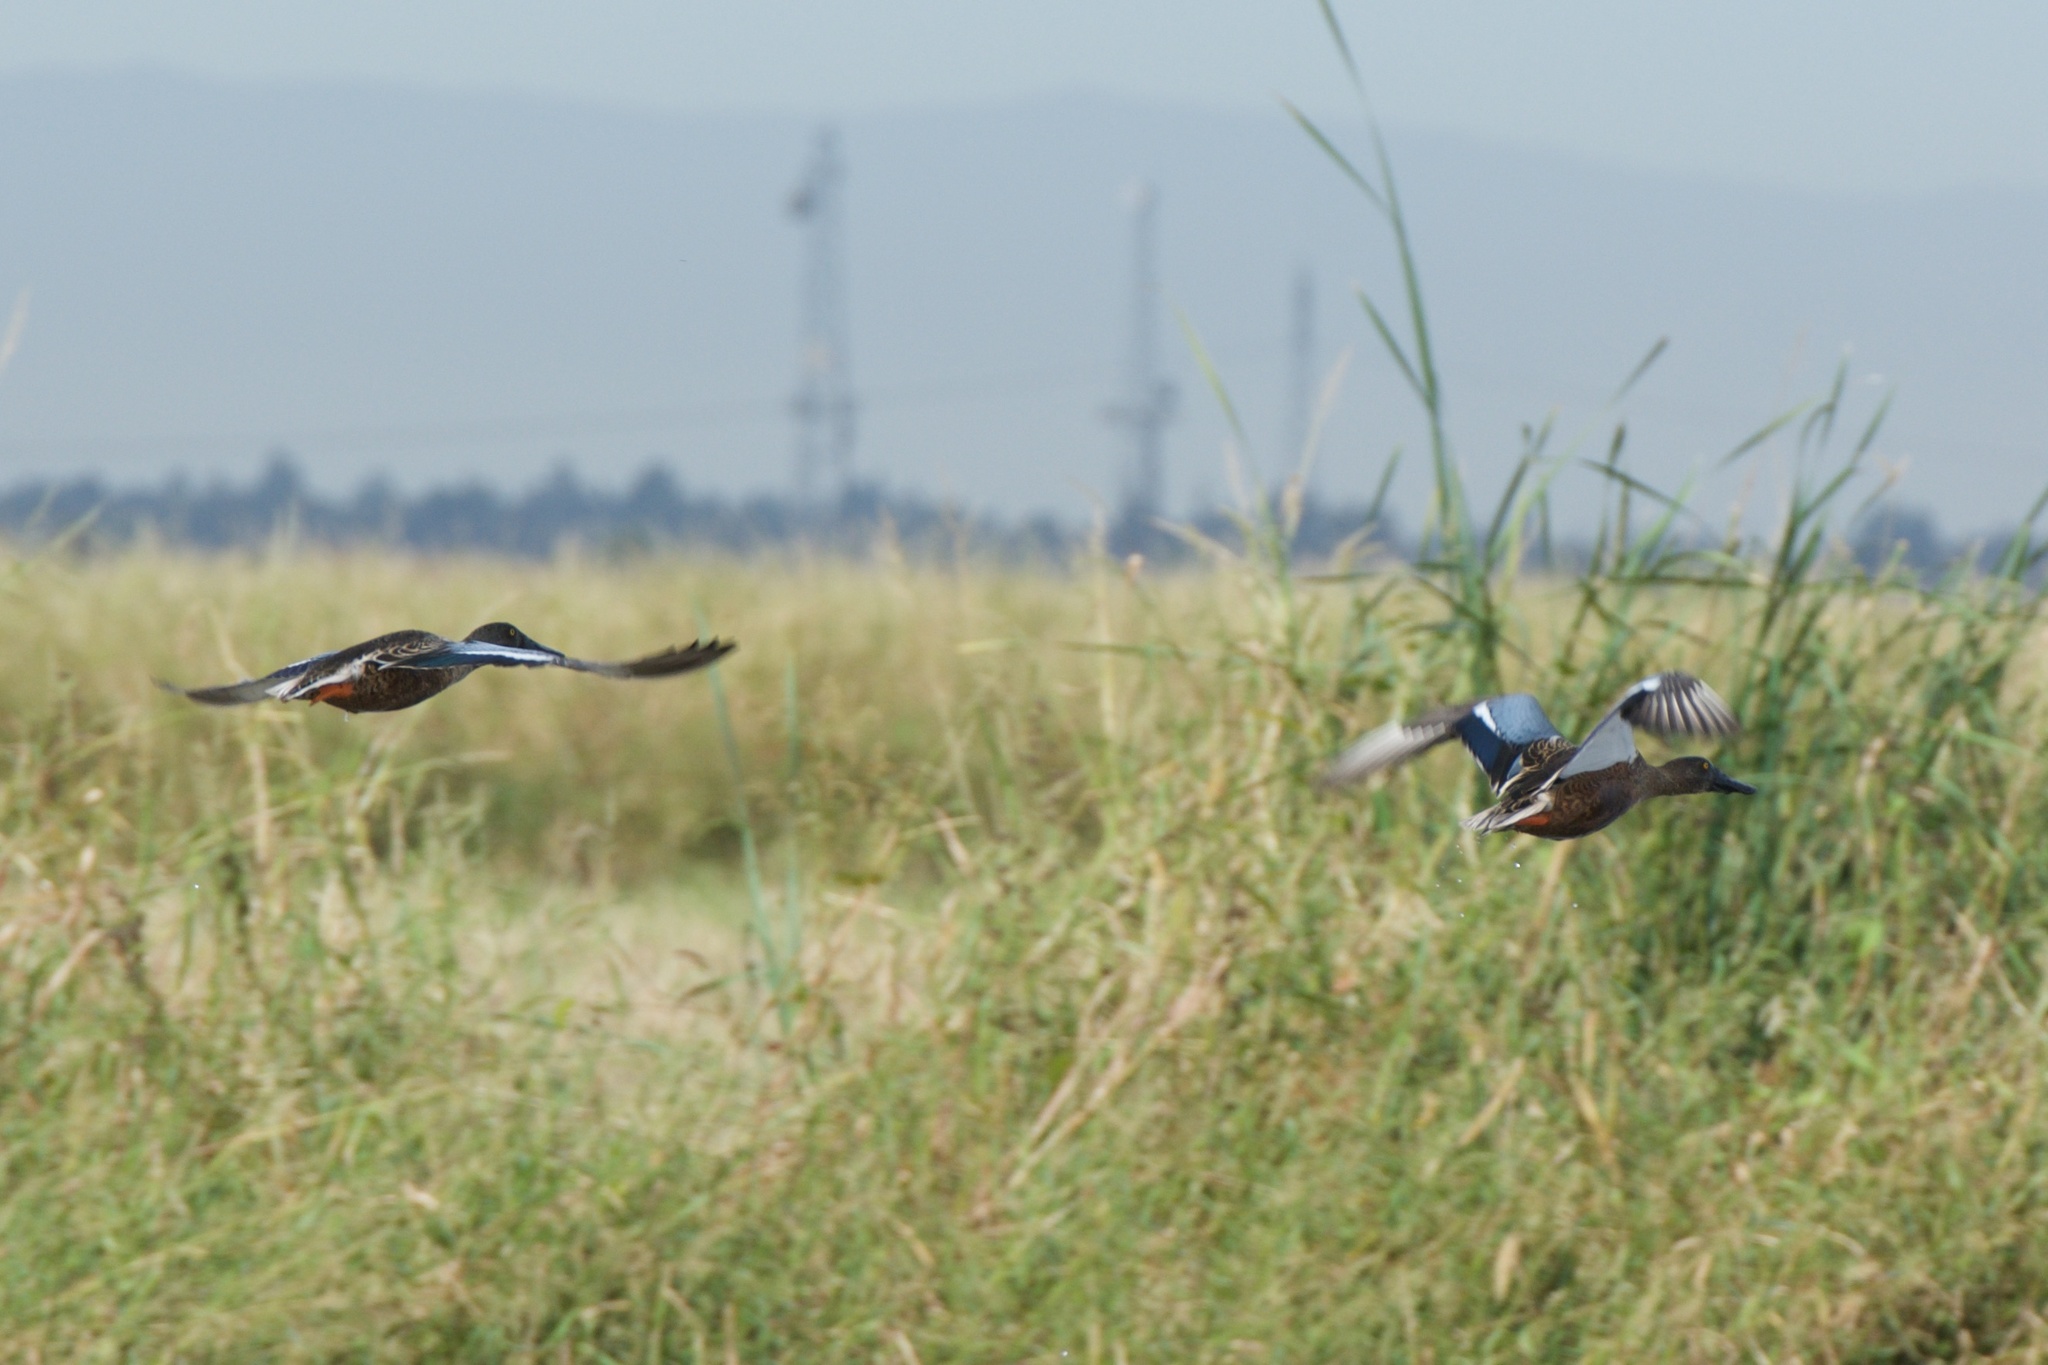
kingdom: Animalia
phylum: Chordata
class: Aves
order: Anseriformes
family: Anatidae
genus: Spatula
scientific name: Spatula clypeata
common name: Northern shoveler
